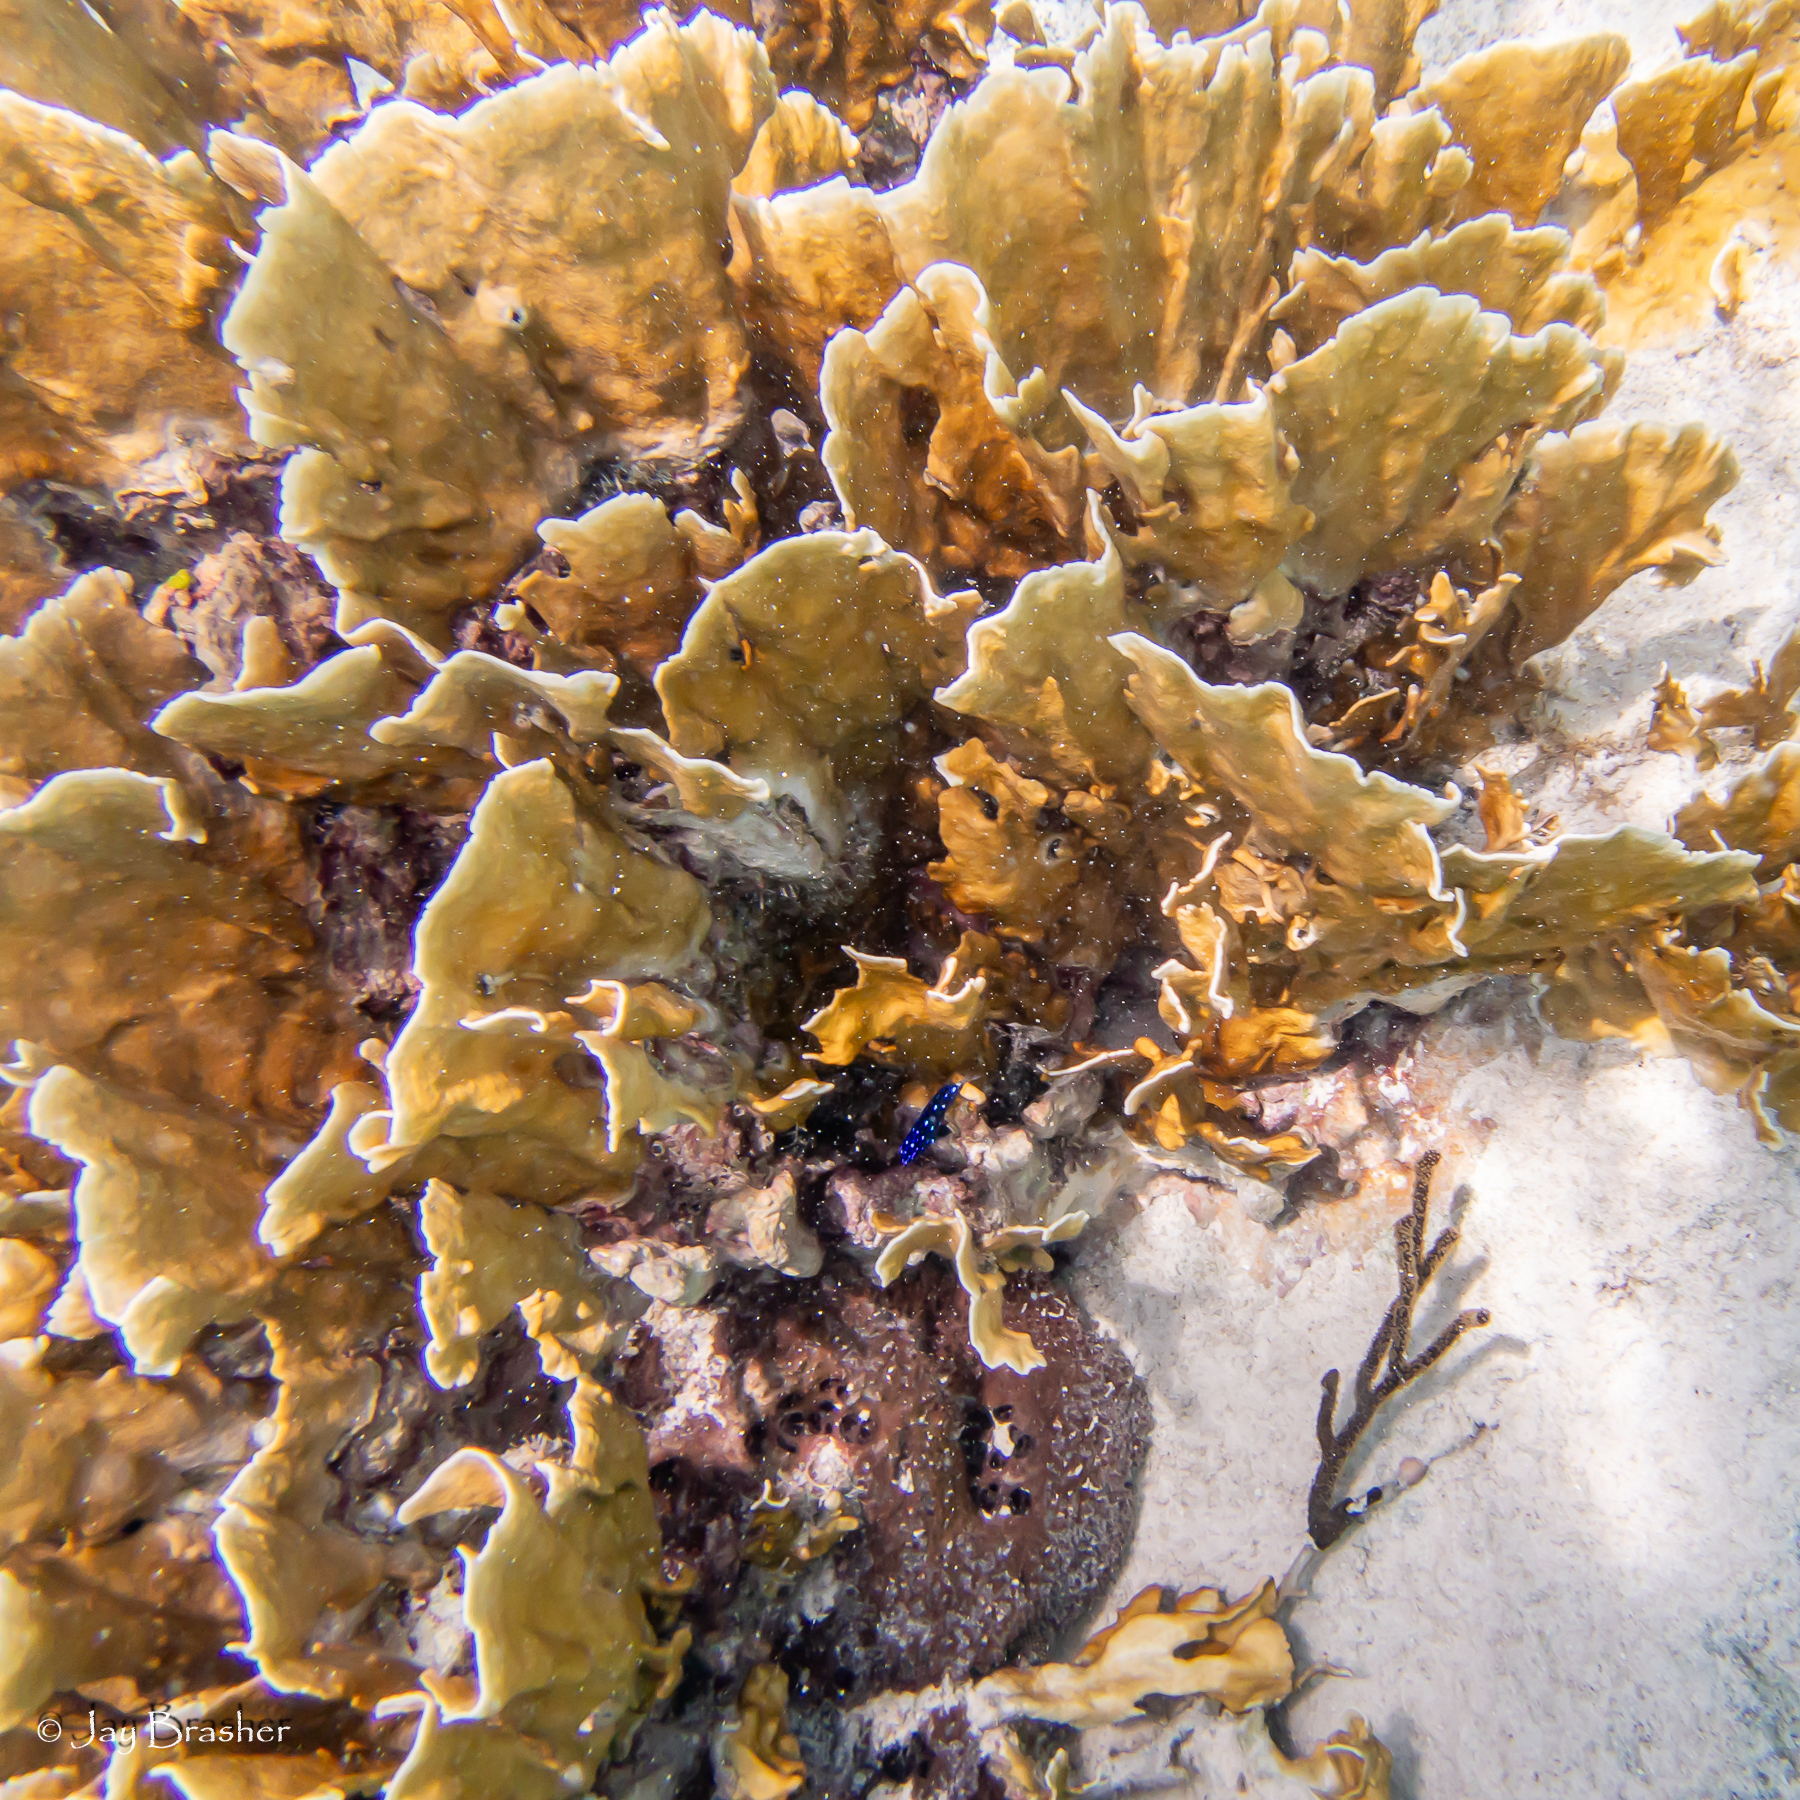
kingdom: Animalia
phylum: Cnidaria
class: Hydrozoa
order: Anthoathecata
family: Milleporidae
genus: Millepora
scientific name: Millepora complanata
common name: Bladed fire coral
